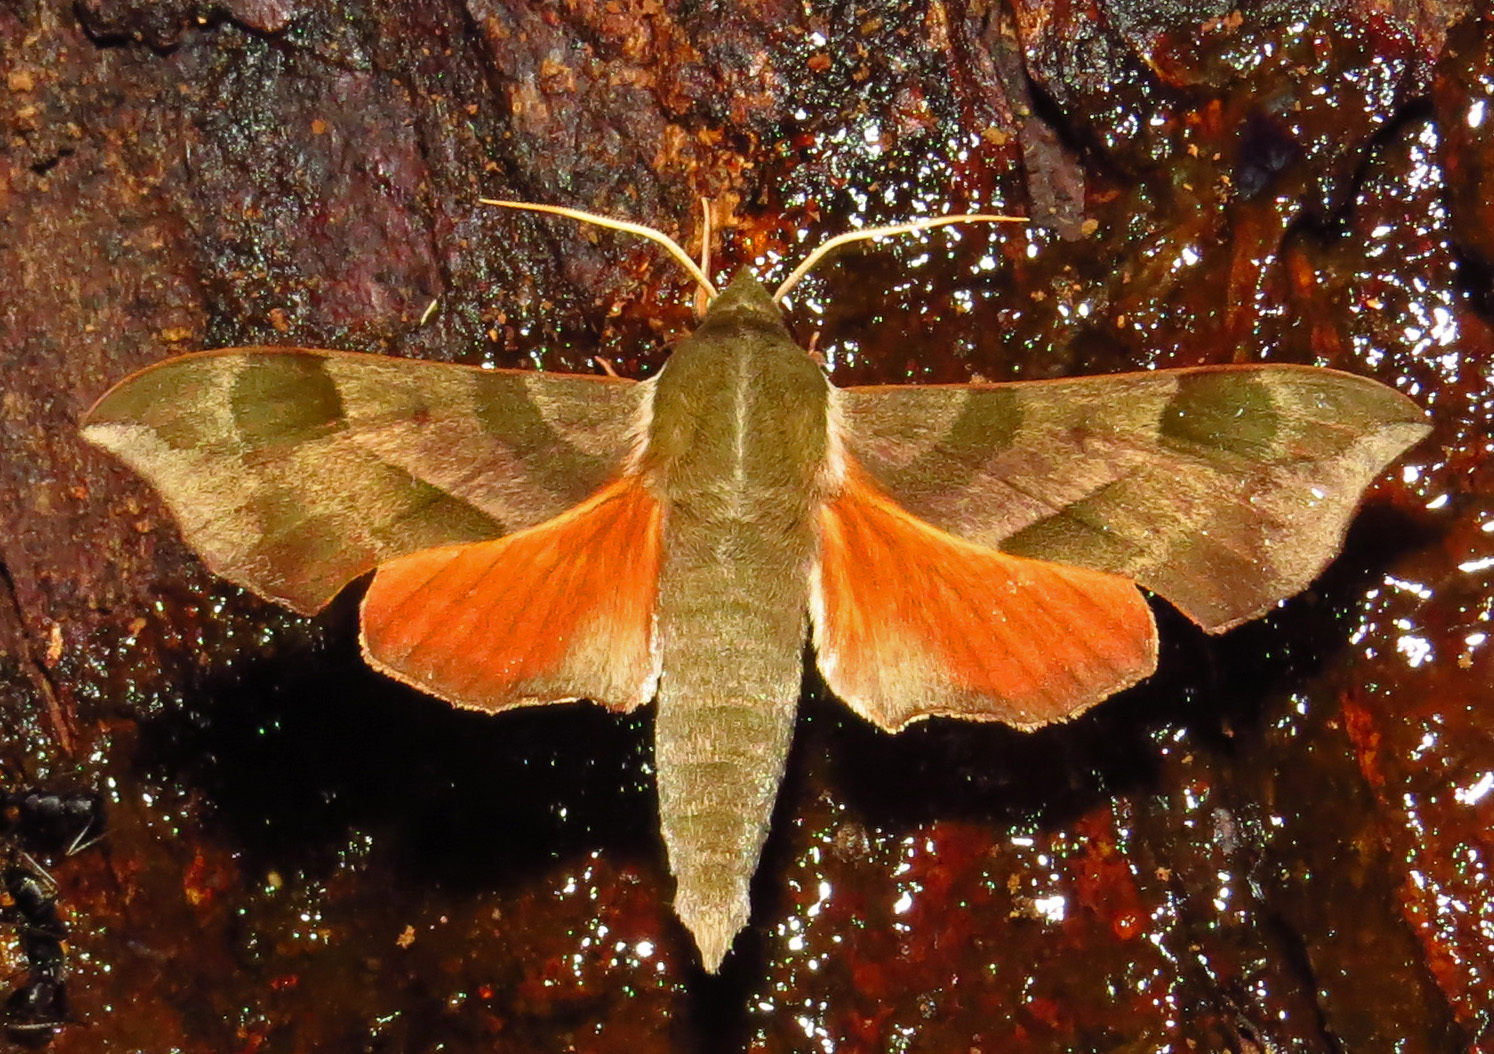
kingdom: Animalia
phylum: Arthropoda
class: Insecta
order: Lepidoptera
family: Sphingidae
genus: Darapsa
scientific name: Darapsa myron
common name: Hog sphinx
